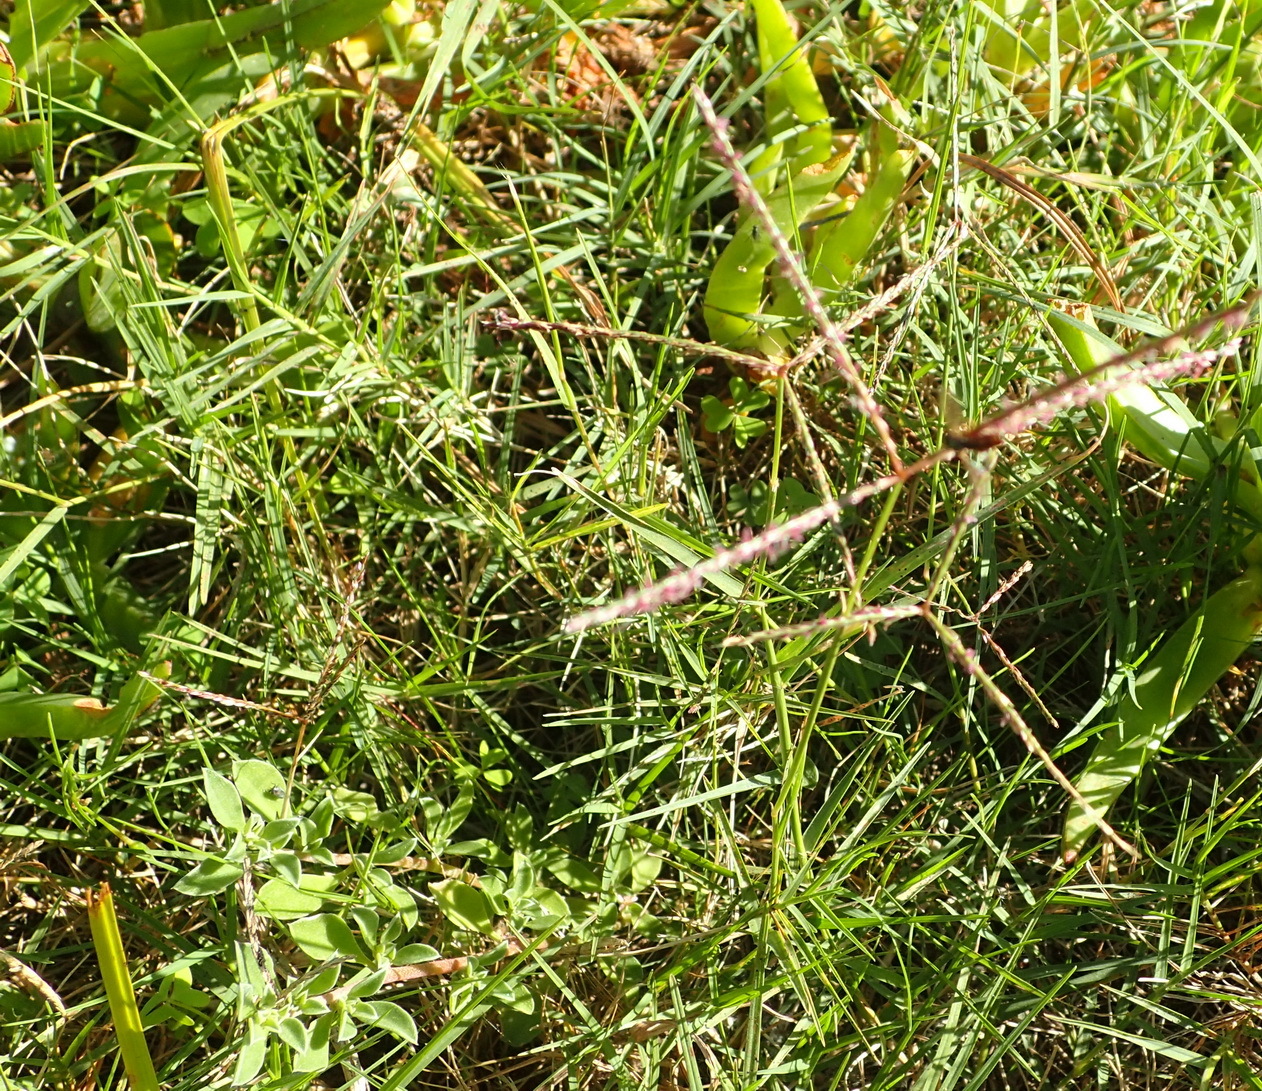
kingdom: Plantae
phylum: Tracheophyta
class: Liliopsida
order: Poales
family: Poaceae
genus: Digitaria
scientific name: Digitaria sanguinalis
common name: Hairy crabgrass
